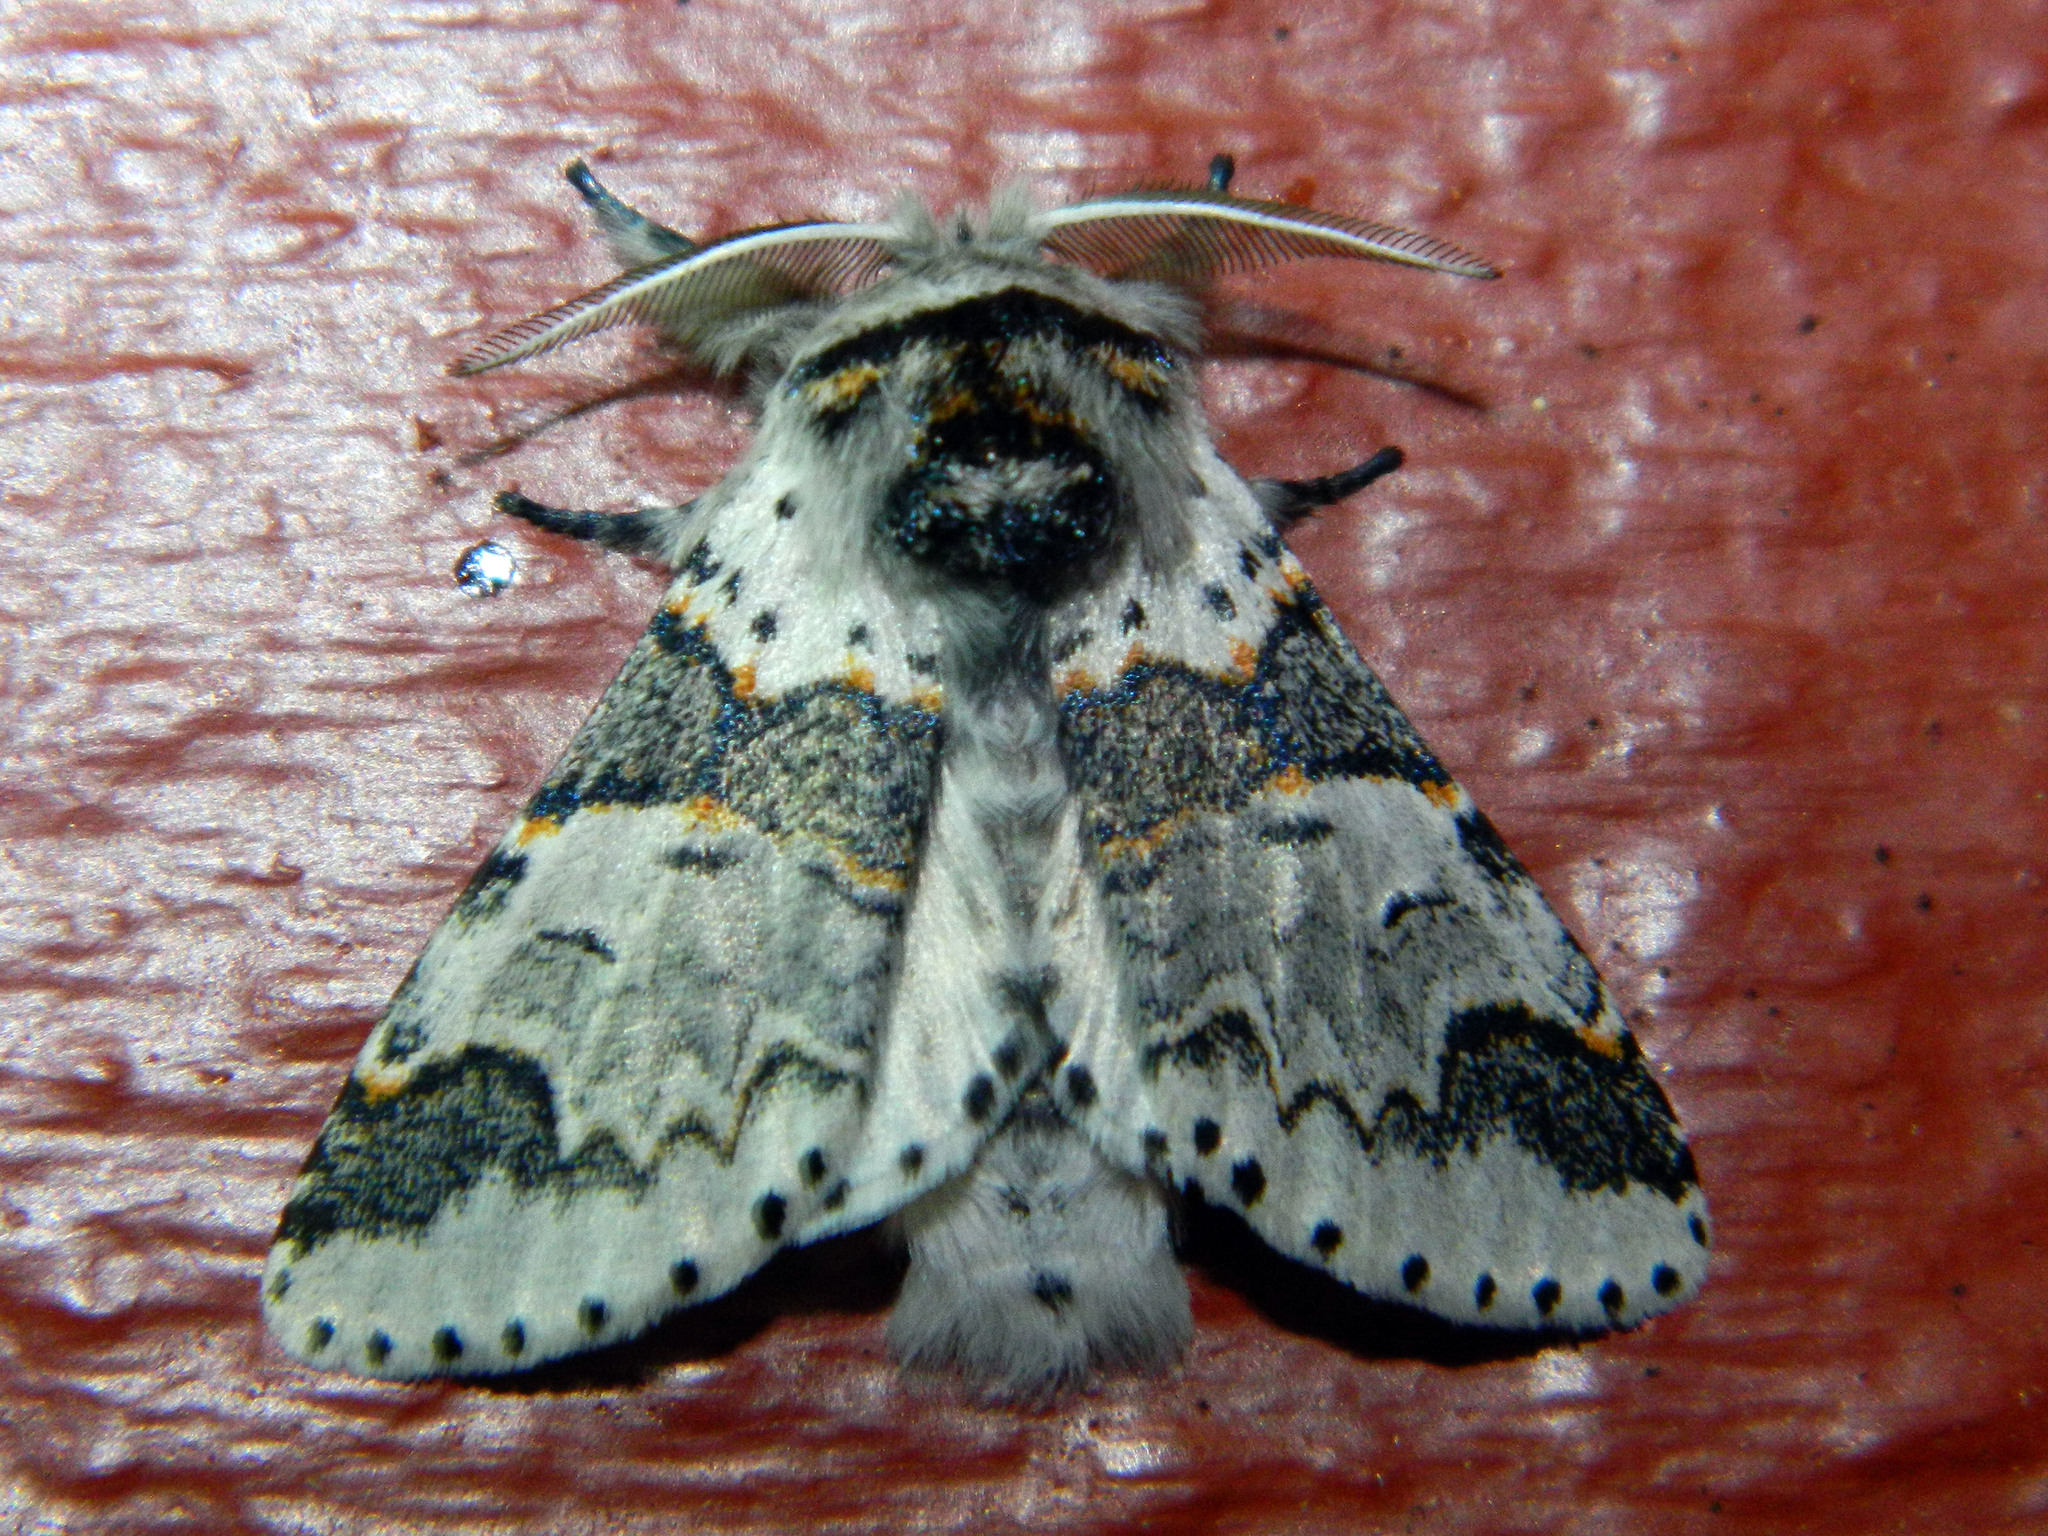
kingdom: Animalia
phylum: Arthropoda
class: Insecta
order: Lepidoptera
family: Notodontidae
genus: Furcula
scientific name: Furcula occidentalis
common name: Western furcula moth
